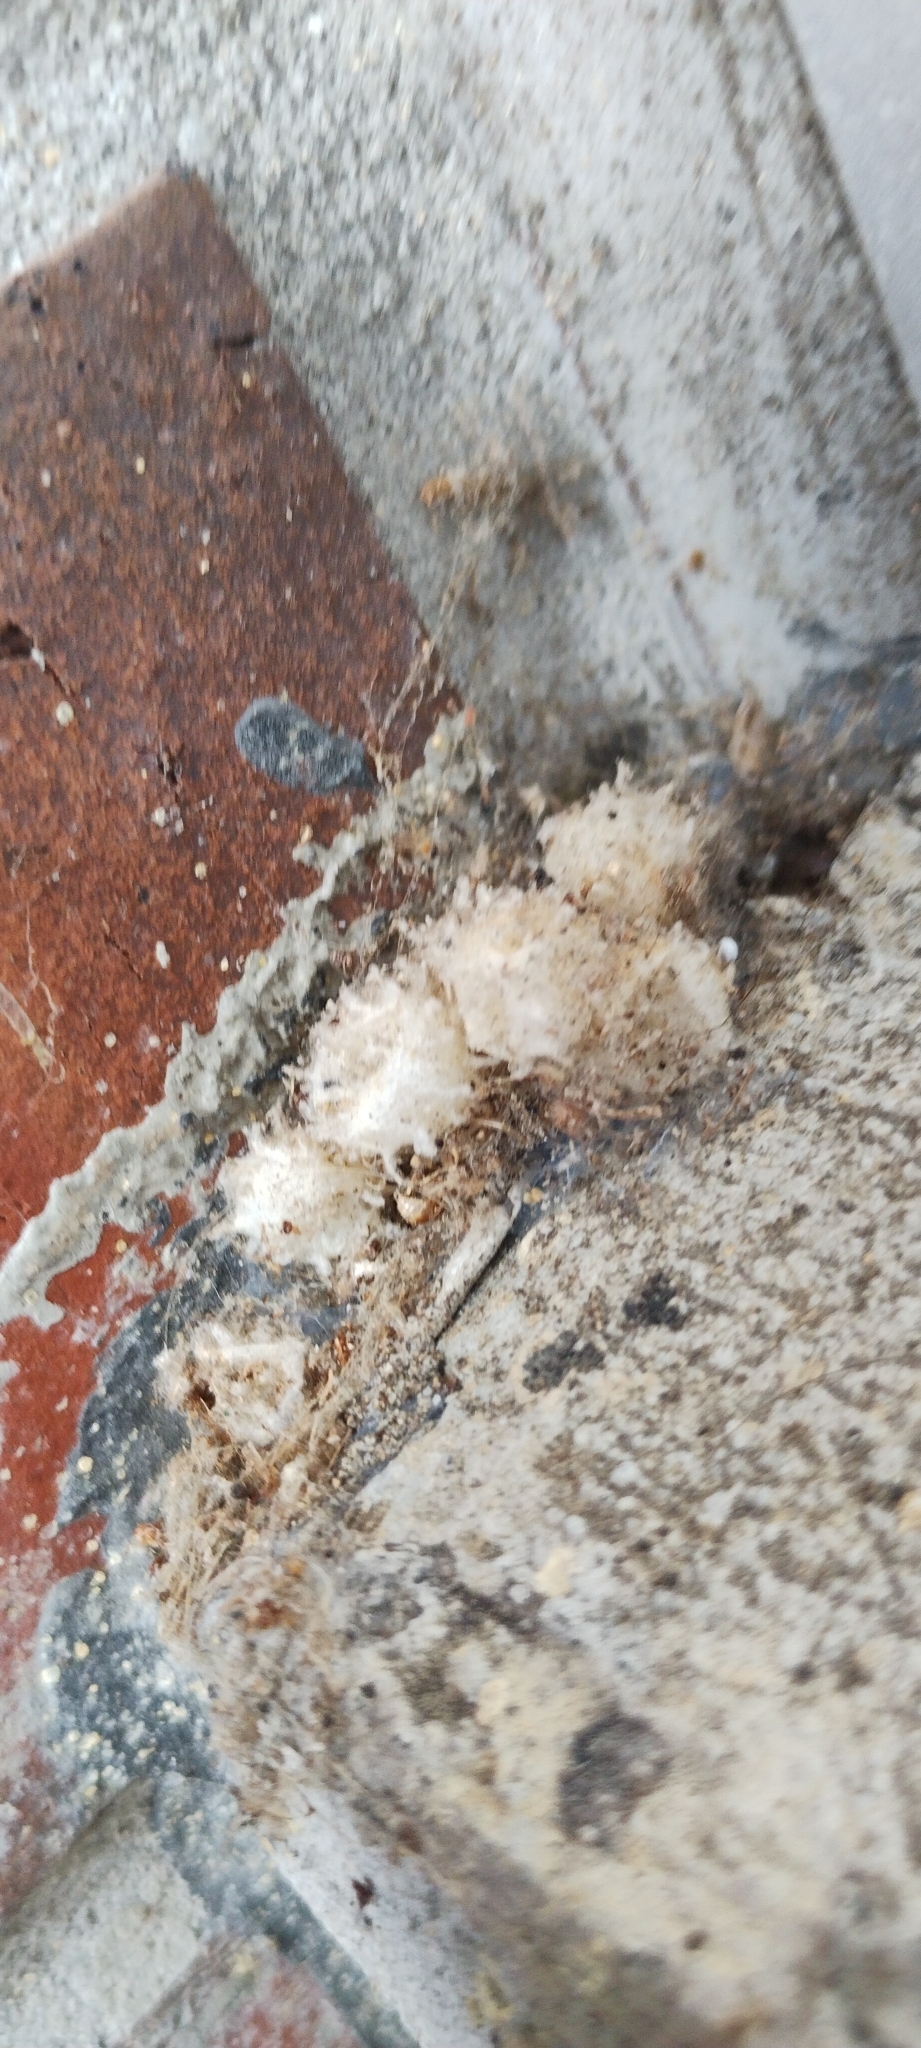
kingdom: Animalia
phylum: Arthropoda
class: Arachnida
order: Araneae
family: Theridiidae
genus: Latrodectus
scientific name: Latrodectus geometricus
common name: Brown widow spider
